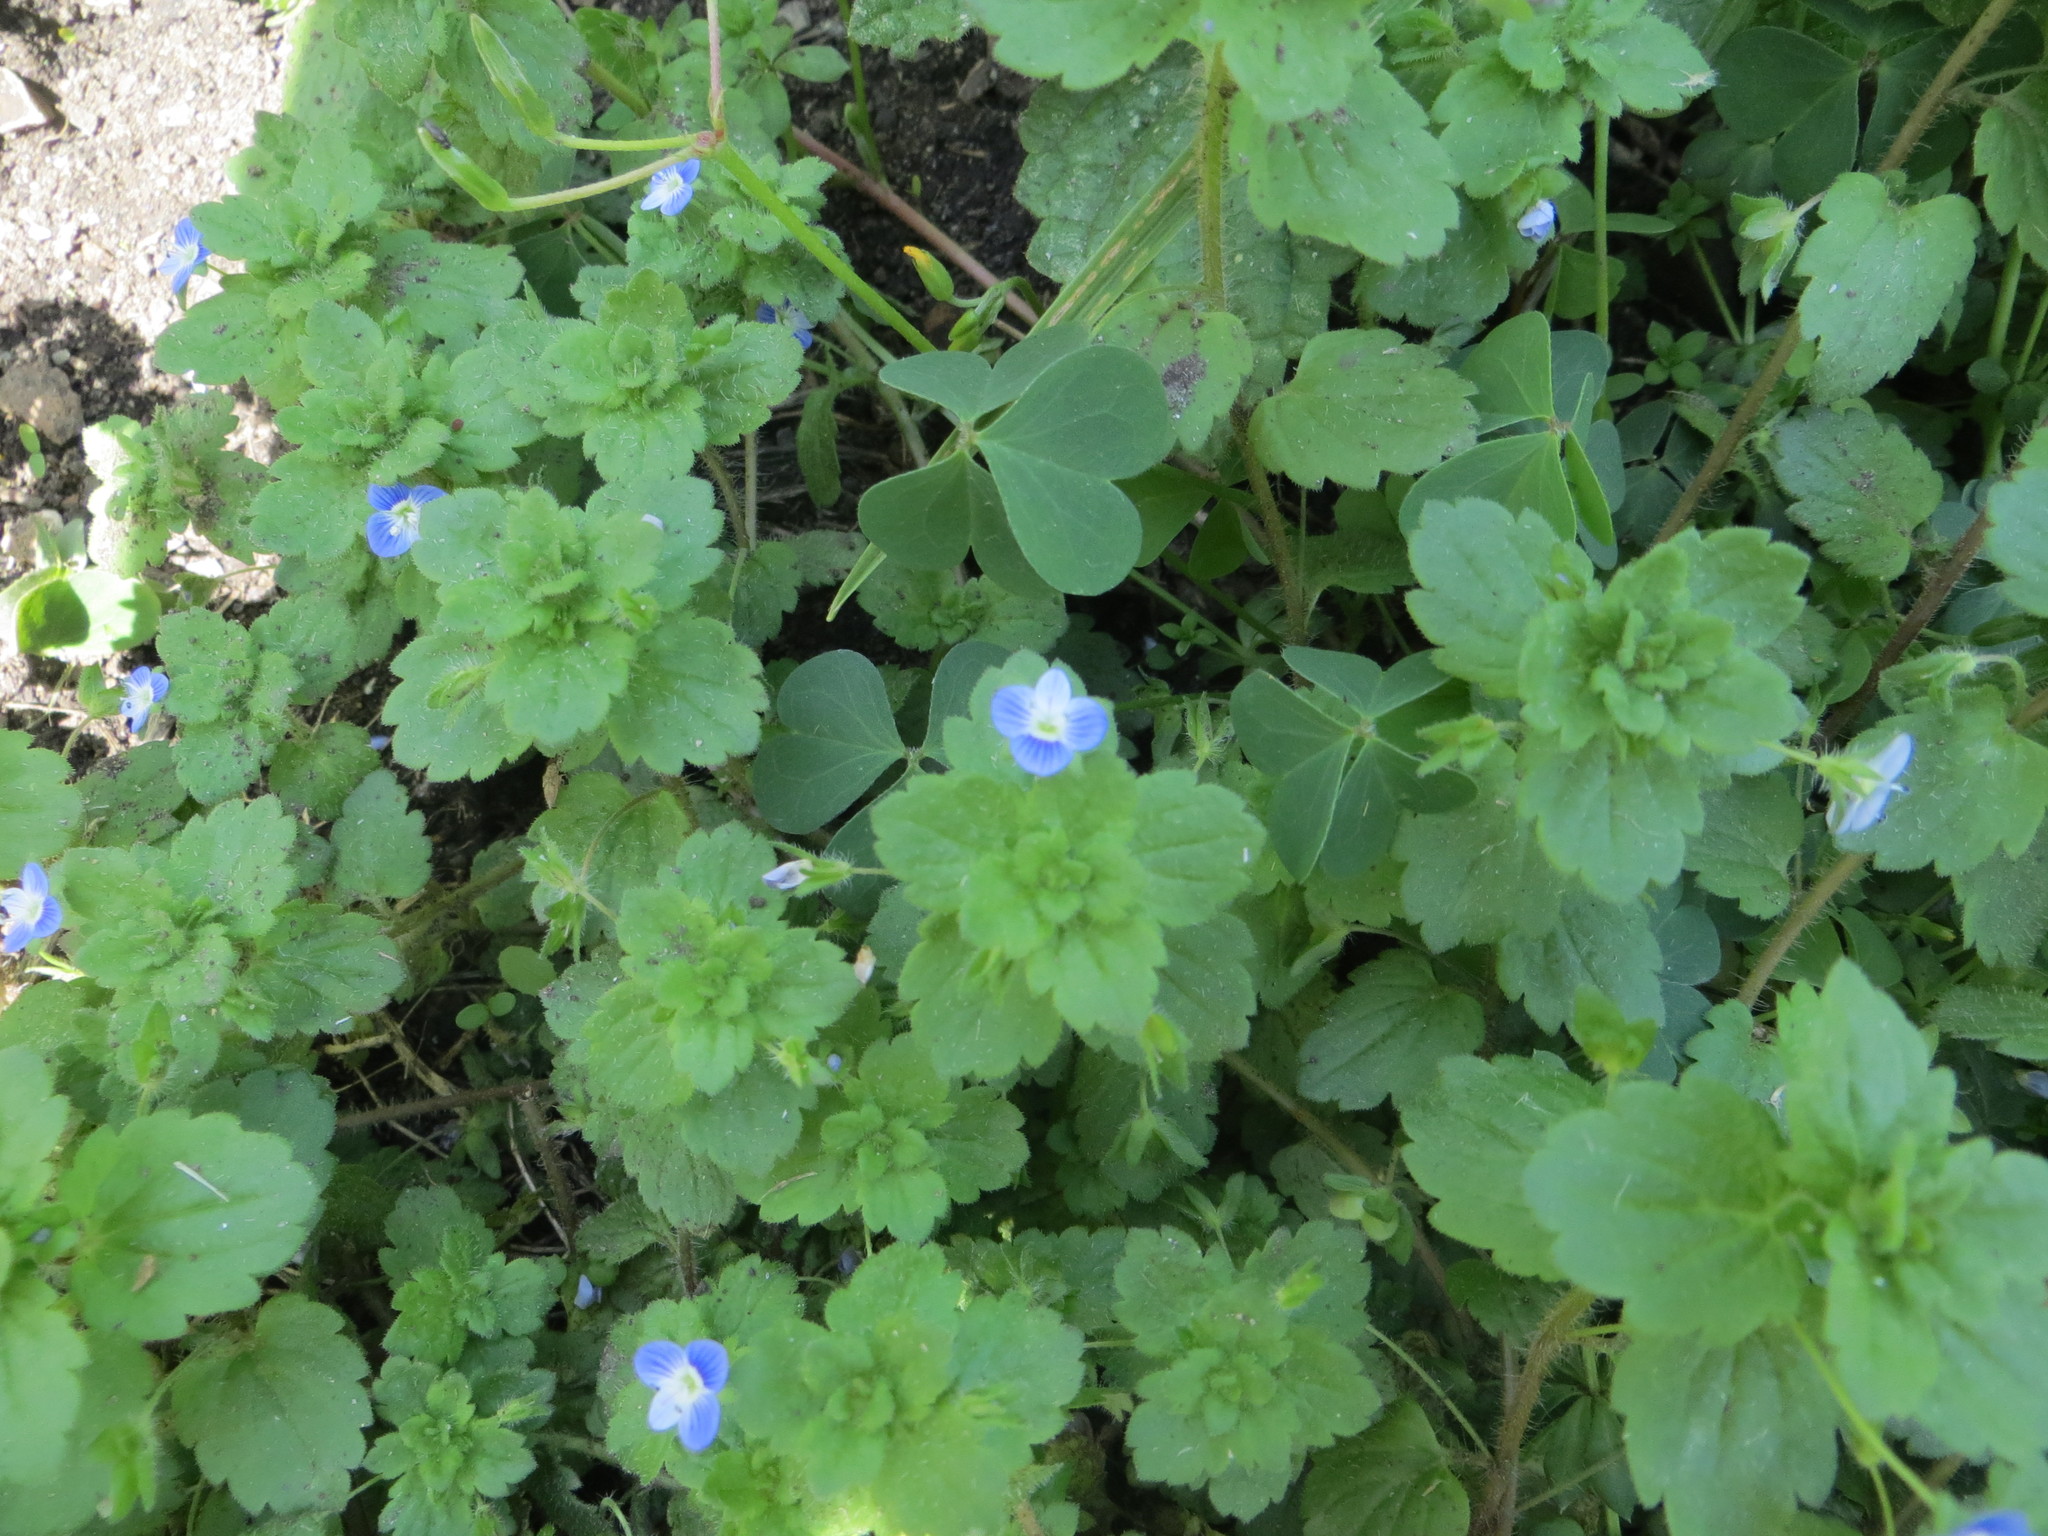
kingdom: Plantae
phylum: Tracheophyta
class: Magnoliopsida
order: Lamiales
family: Plantaginaceae
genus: Veronica
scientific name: Veronica persica
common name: Common field-speedwell
